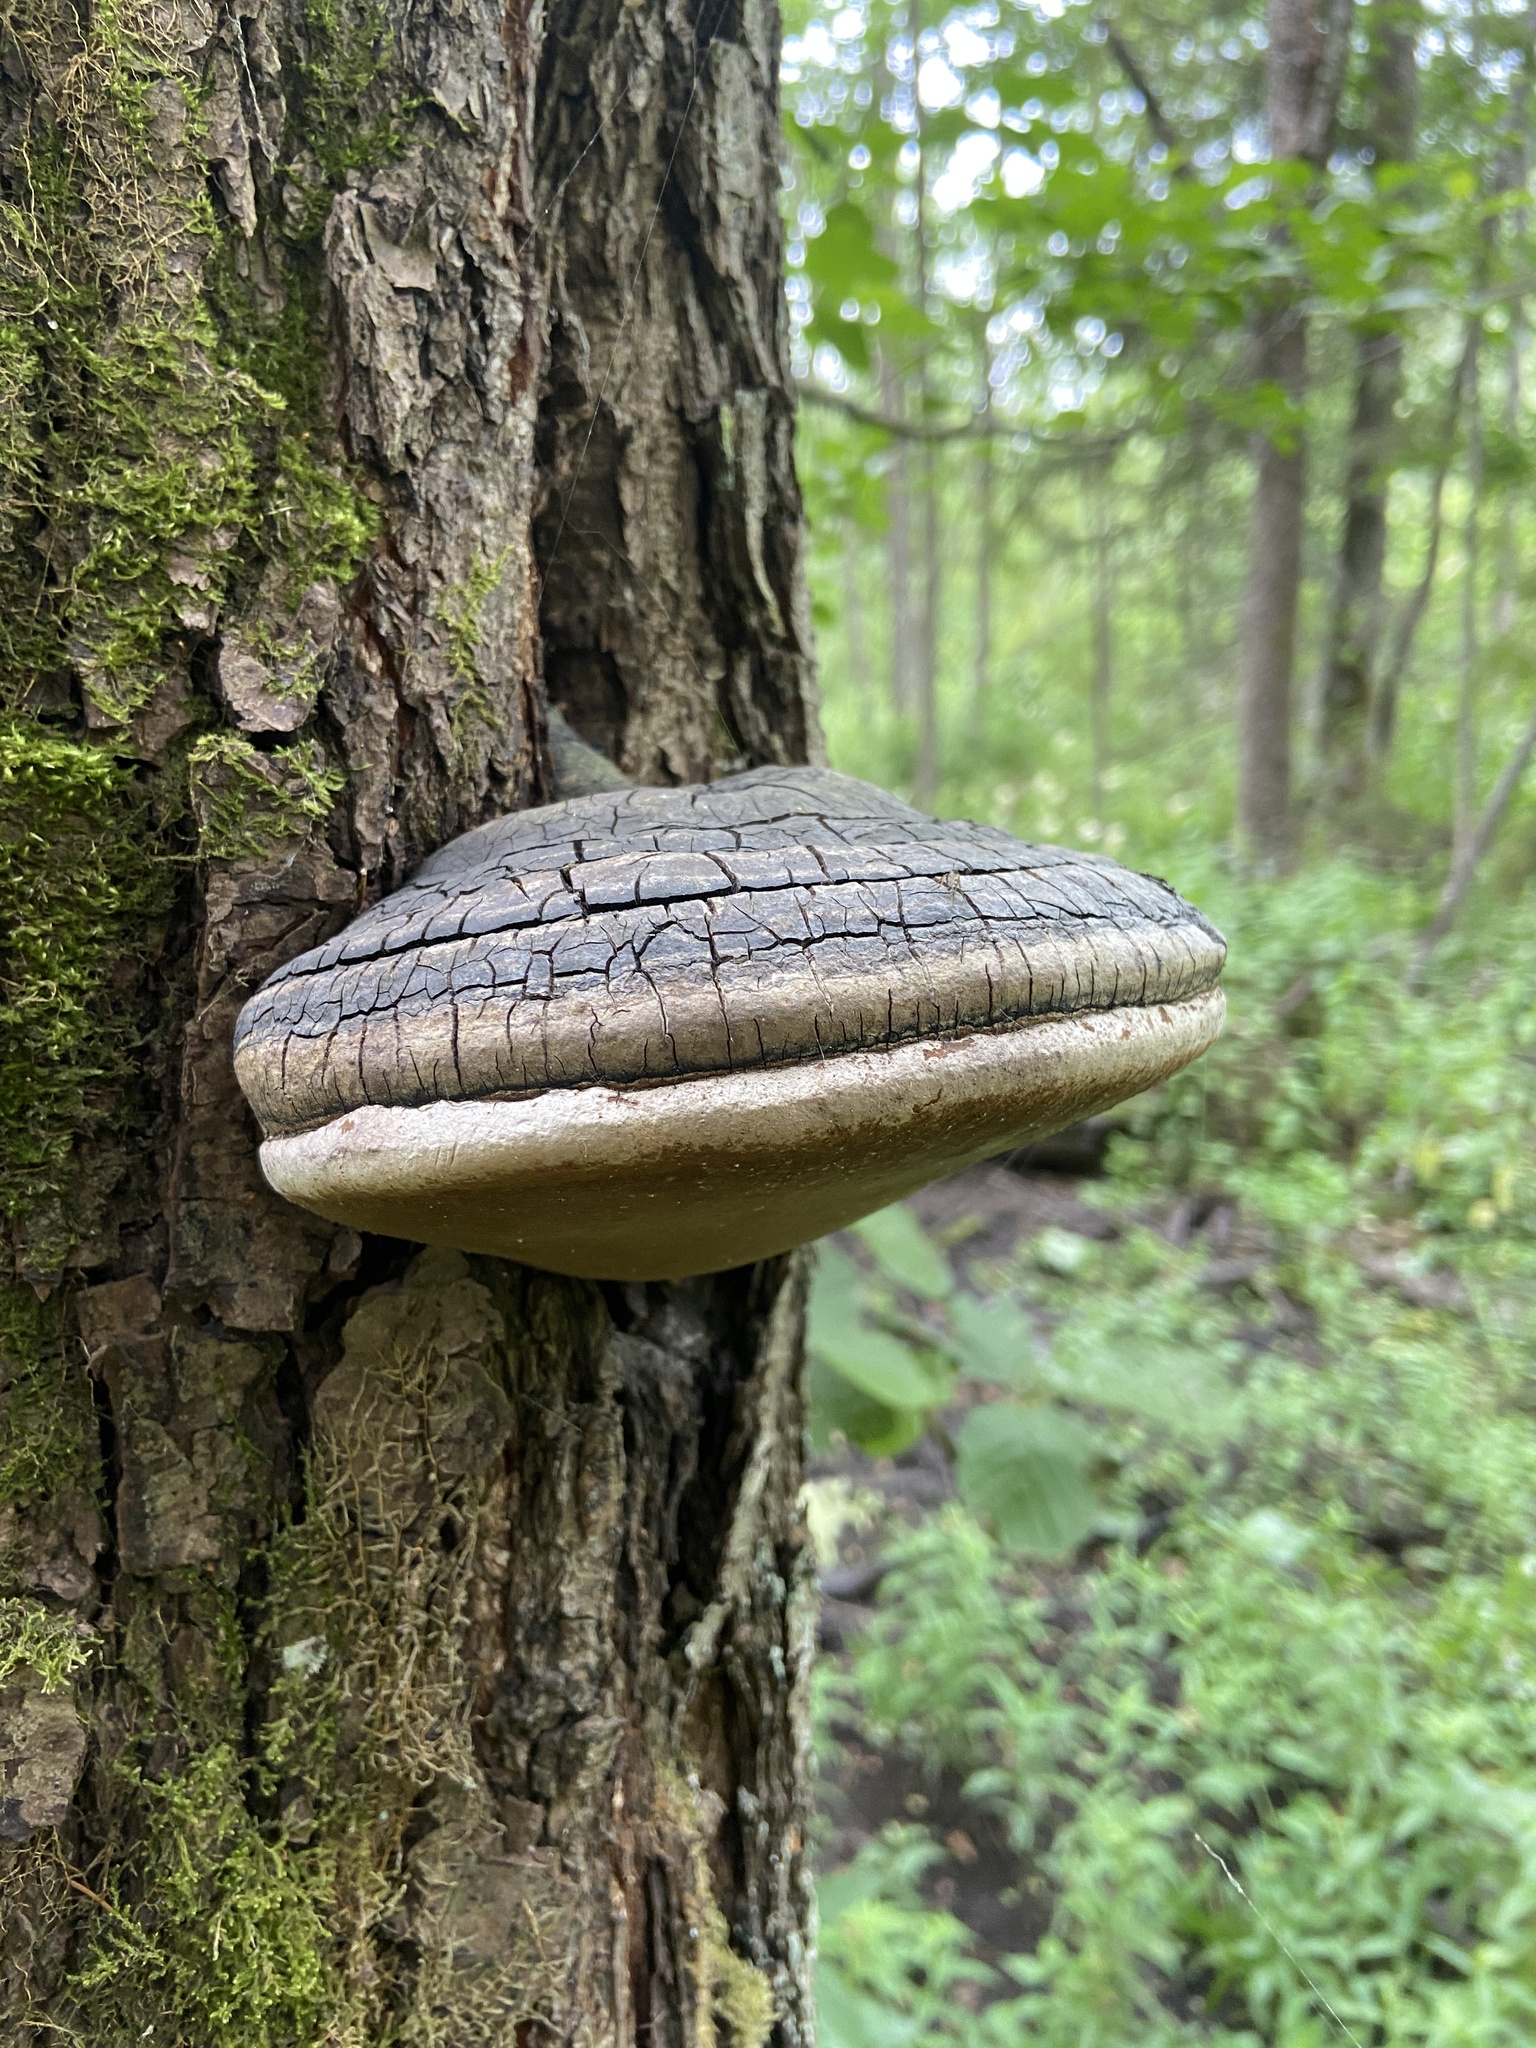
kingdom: Fungi
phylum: Basidiomycota
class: Agaricomycetes
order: Hymenochaetales
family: Hymenochaetaceae
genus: Phellinus
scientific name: Phellinus igniarius
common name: Willow bracket
